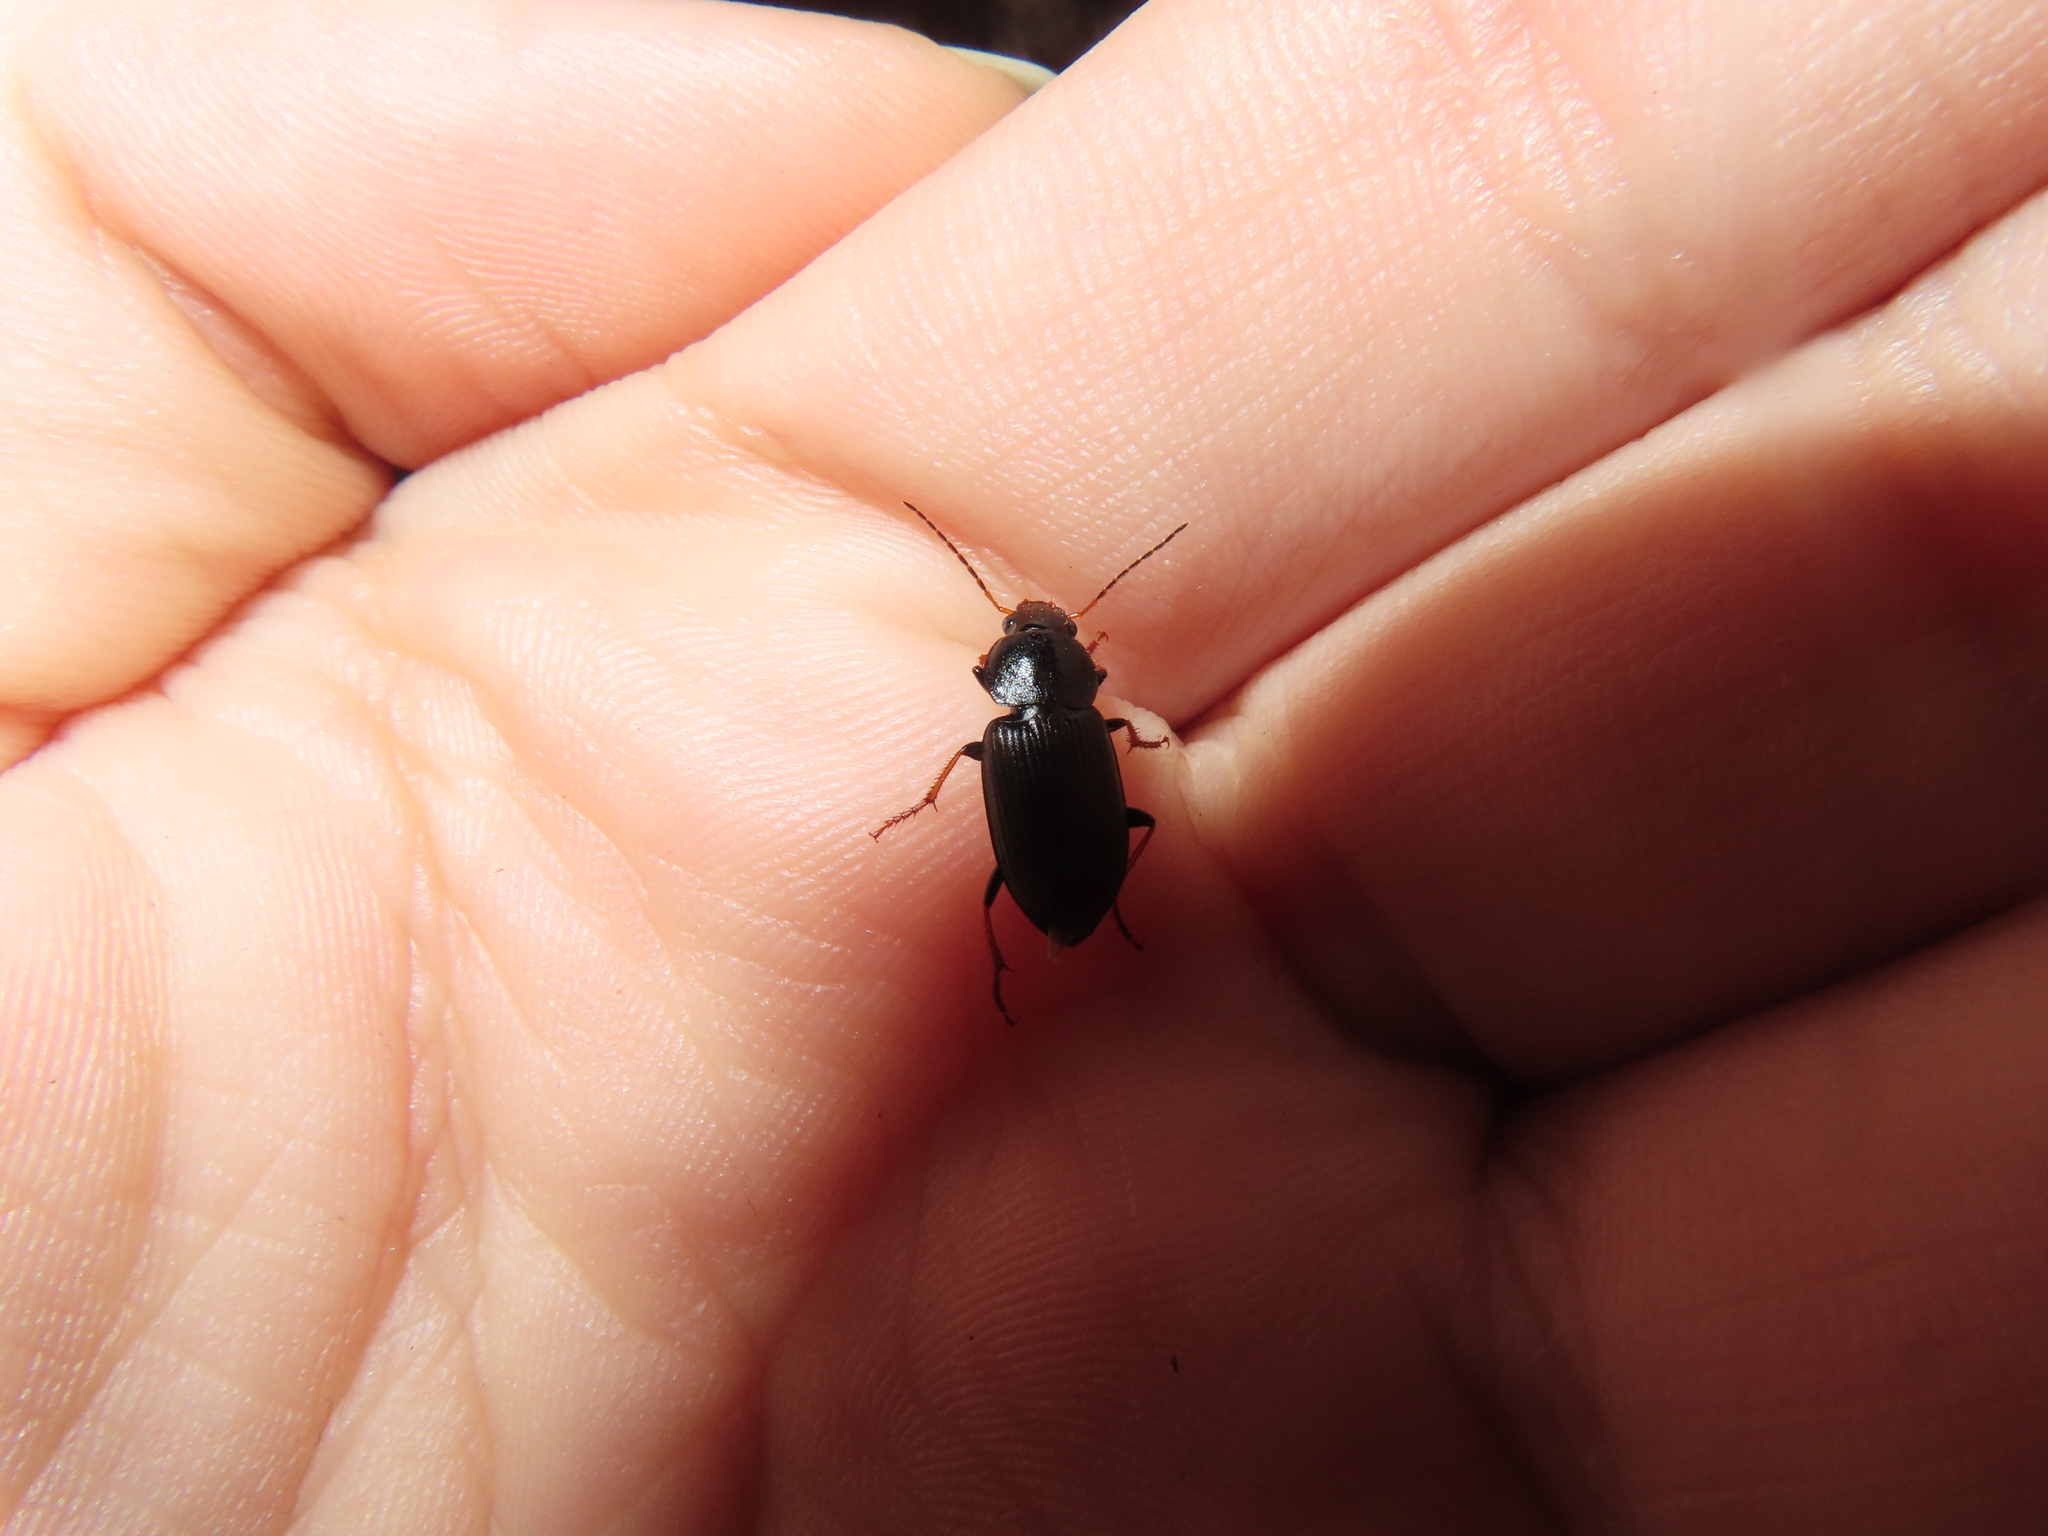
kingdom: Animalia
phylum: Arthropoda
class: Insecta
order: Coleoptera
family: Carabidae
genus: Amphasia
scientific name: Amphasia sericea
